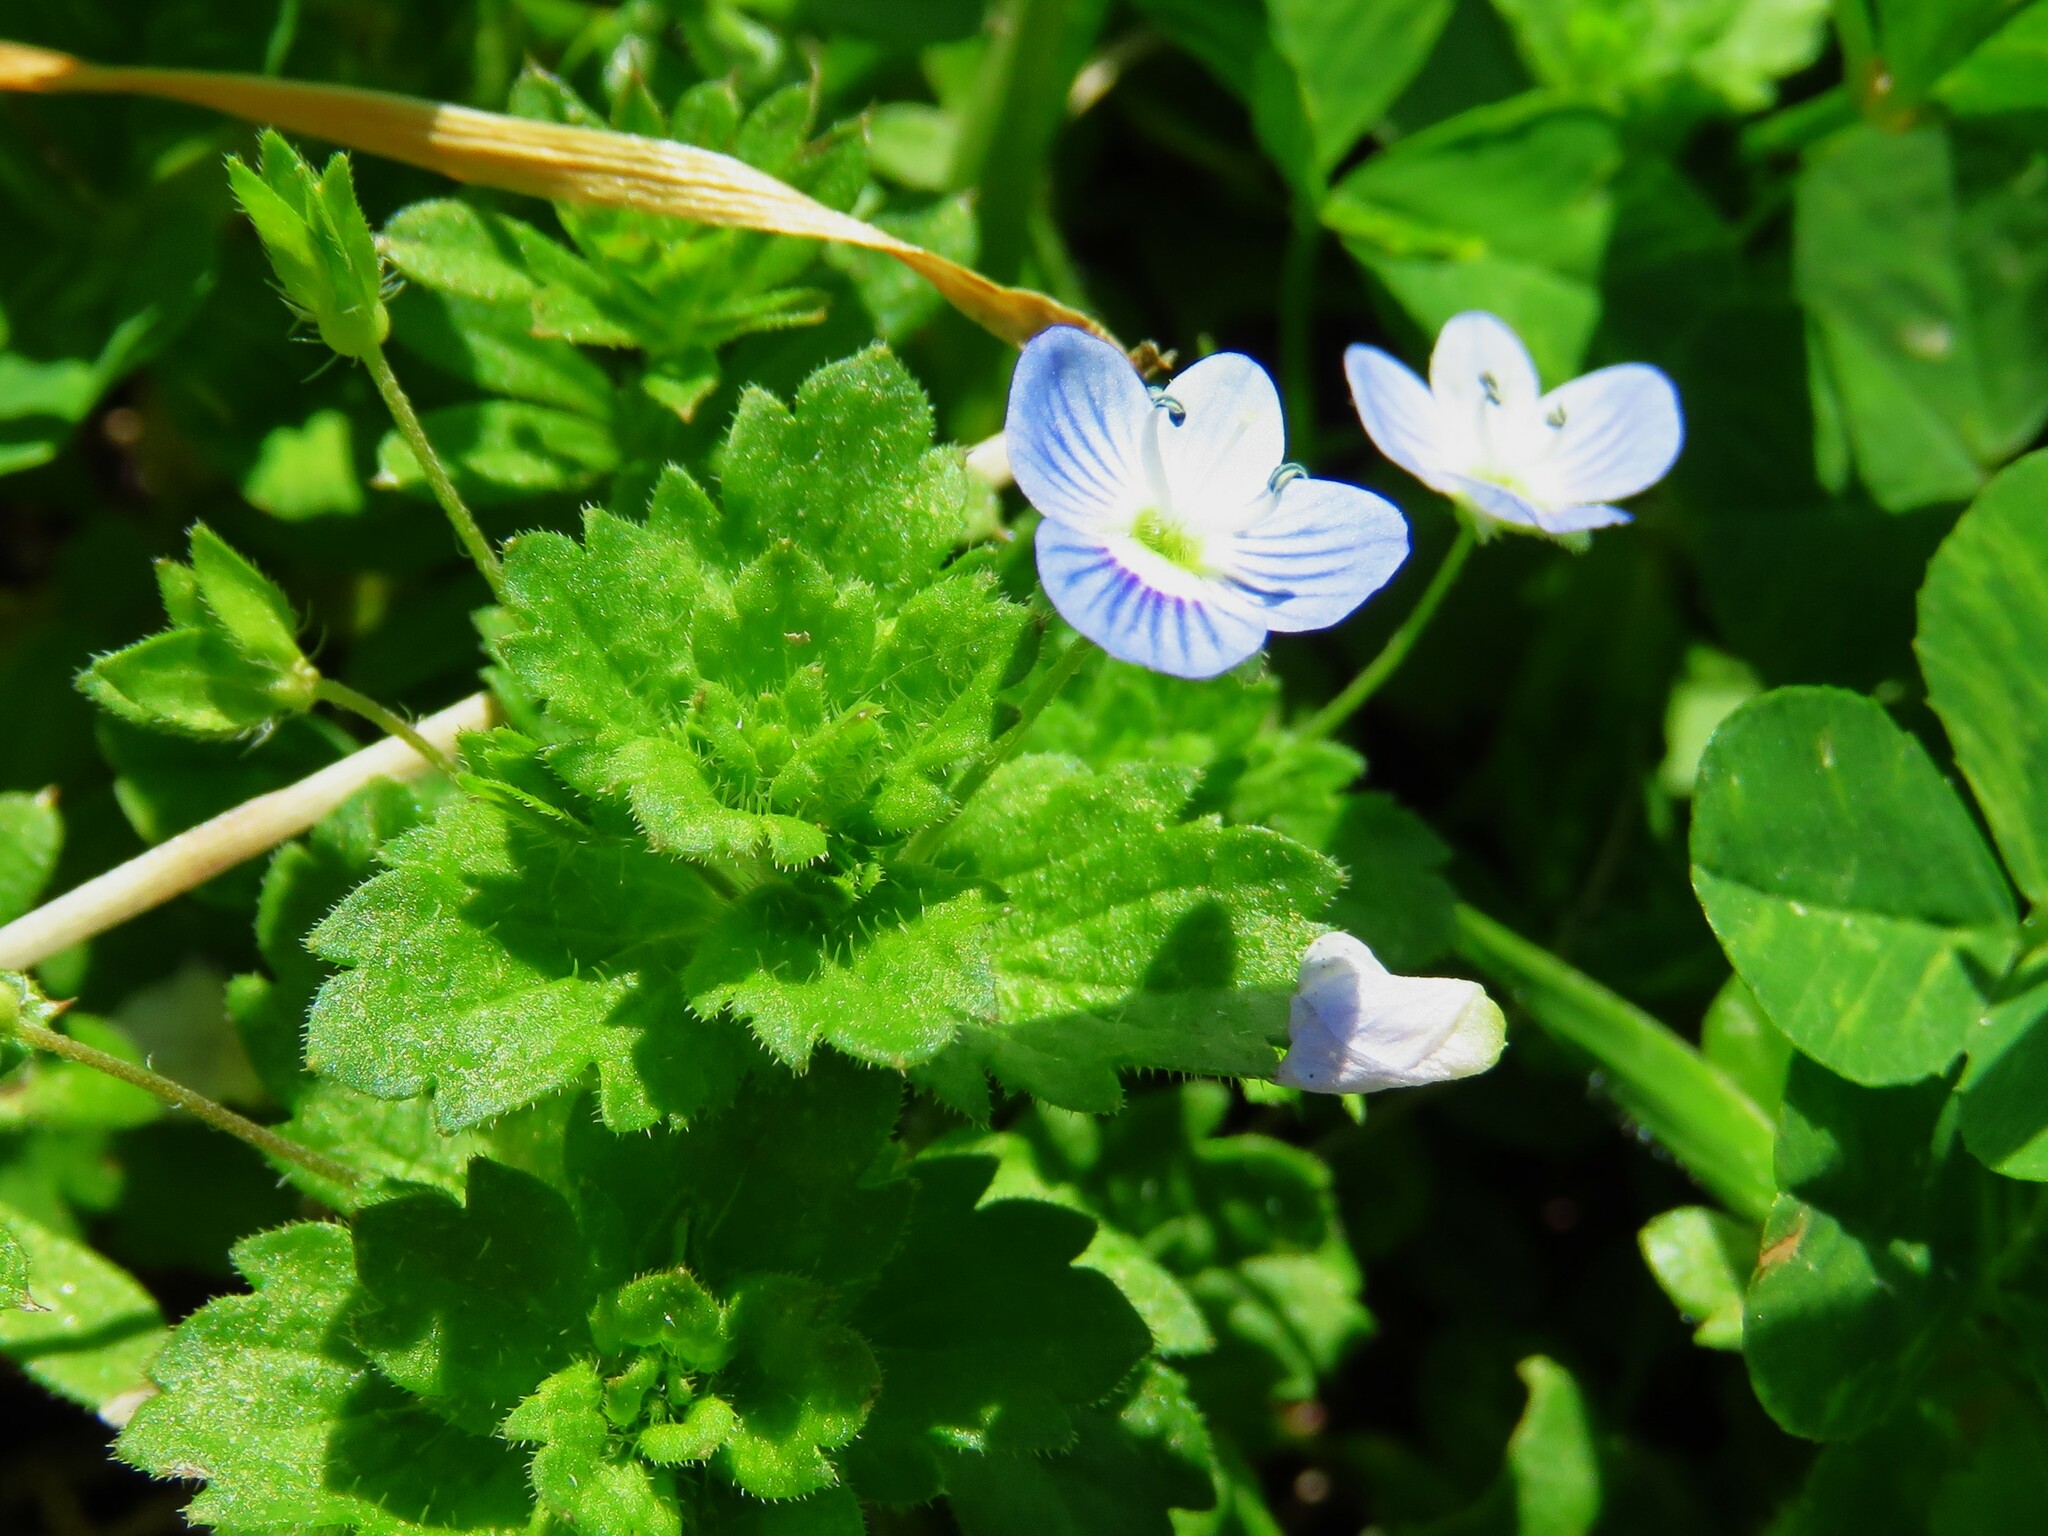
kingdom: Plantae
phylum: Tracheophyta
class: Magnoliopsida
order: Lamiales
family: Plantaginaceae
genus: Veronica
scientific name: Veronica persica
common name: Common field-speedwell
